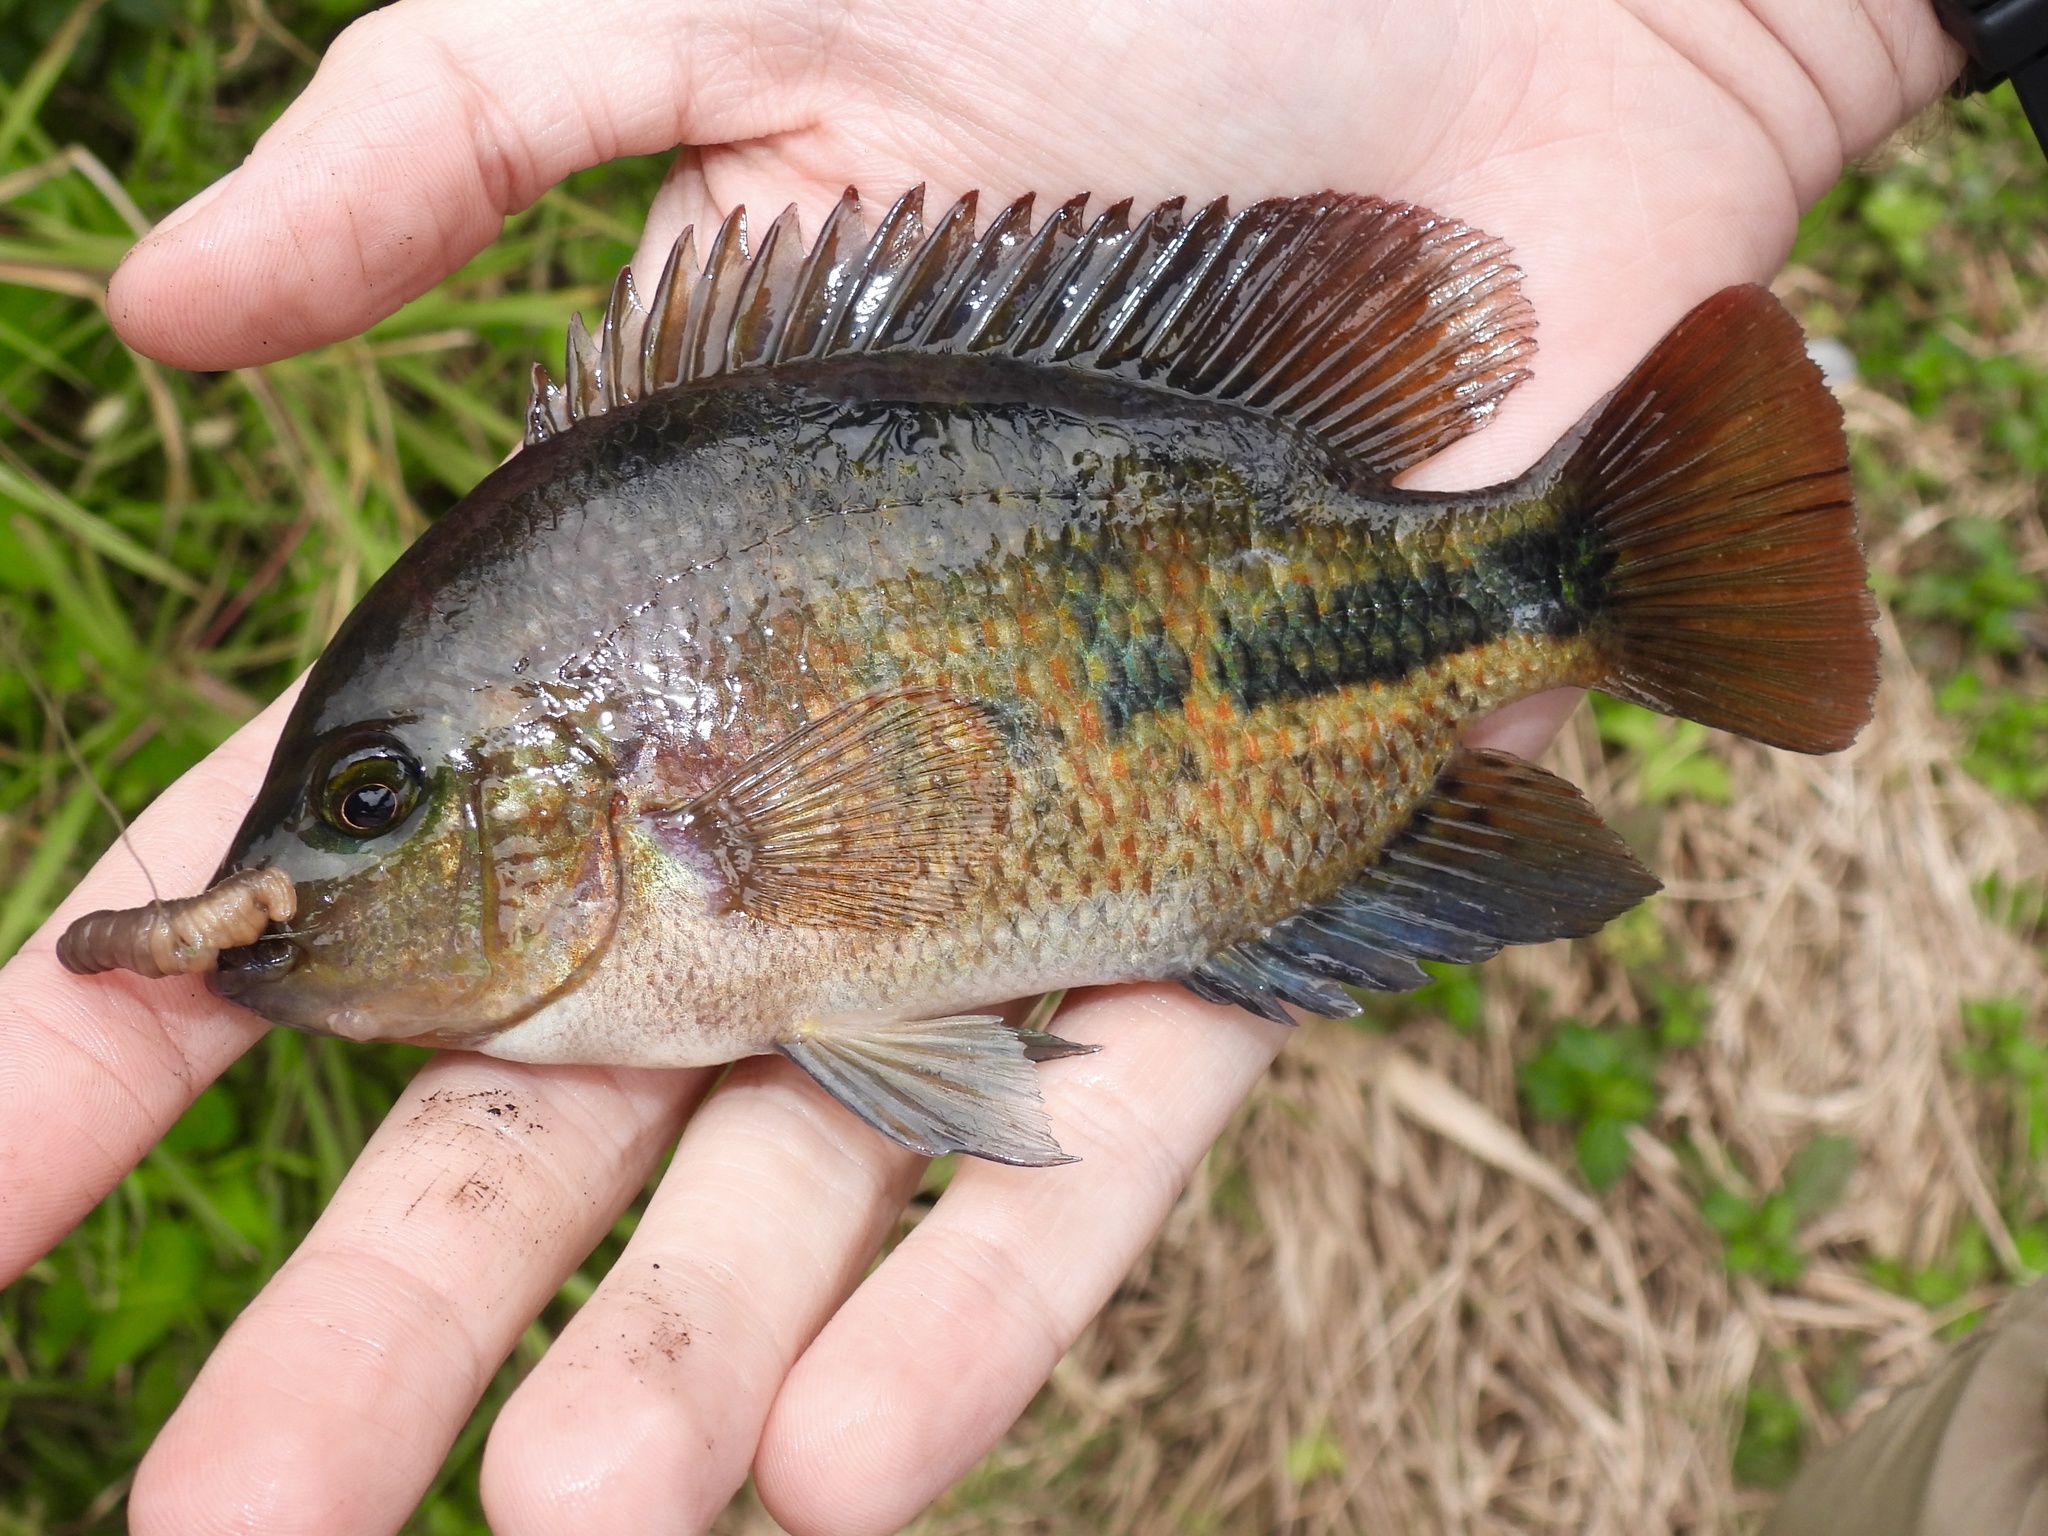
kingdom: Animalia
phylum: Chordata
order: Perciformes
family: Cichlidae
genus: Vieja
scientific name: Vieja melanura
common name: Redhead cichlid
